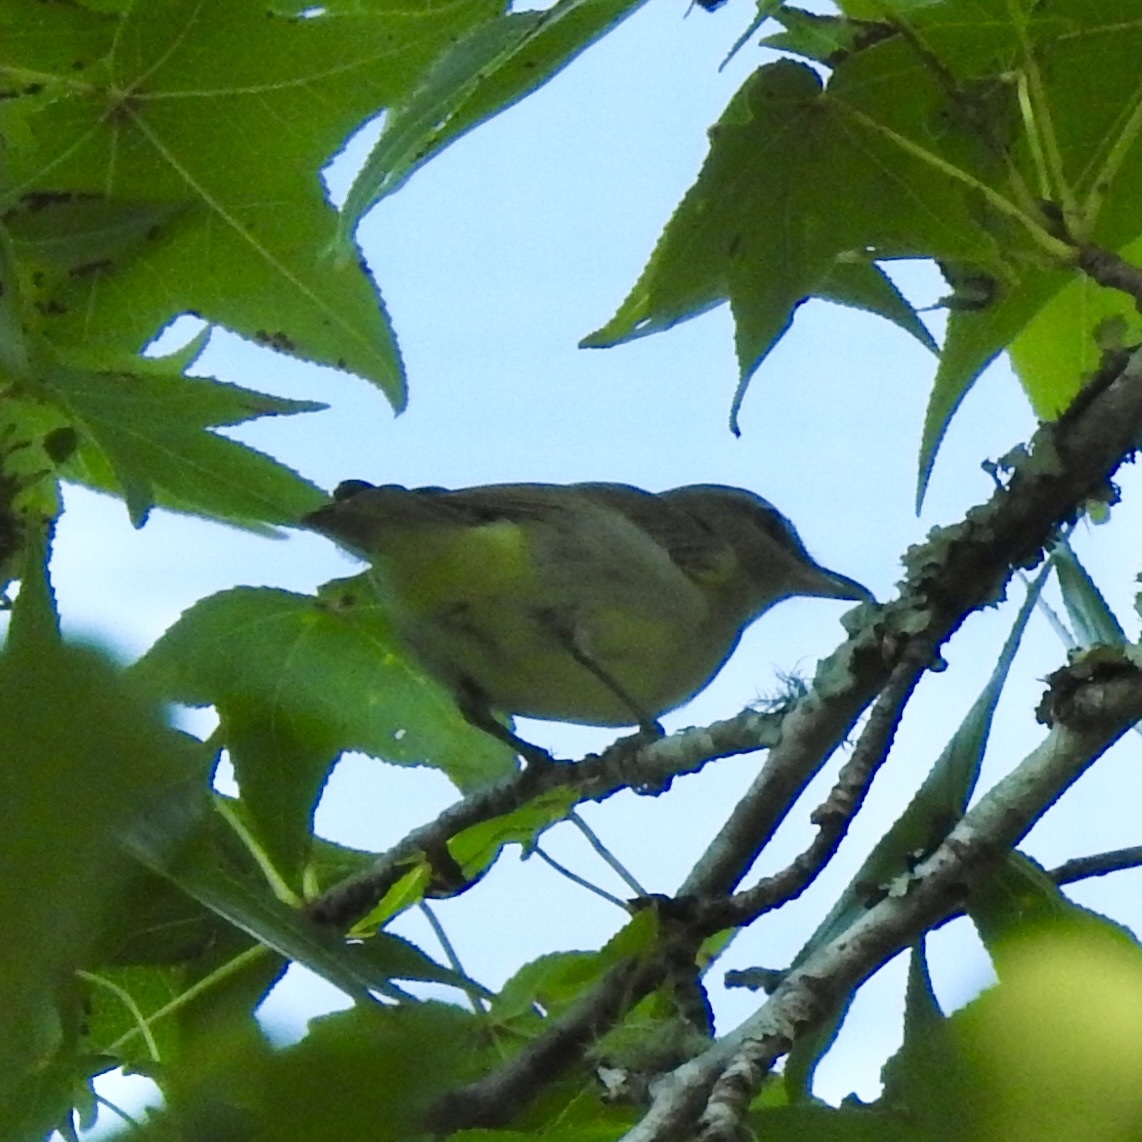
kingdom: Animalia
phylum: Chordata
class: Aves
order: Passeriformes
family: Vireonidae
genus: Vireo
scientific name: Vireo olivaceus
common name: Red-eyed vireo
